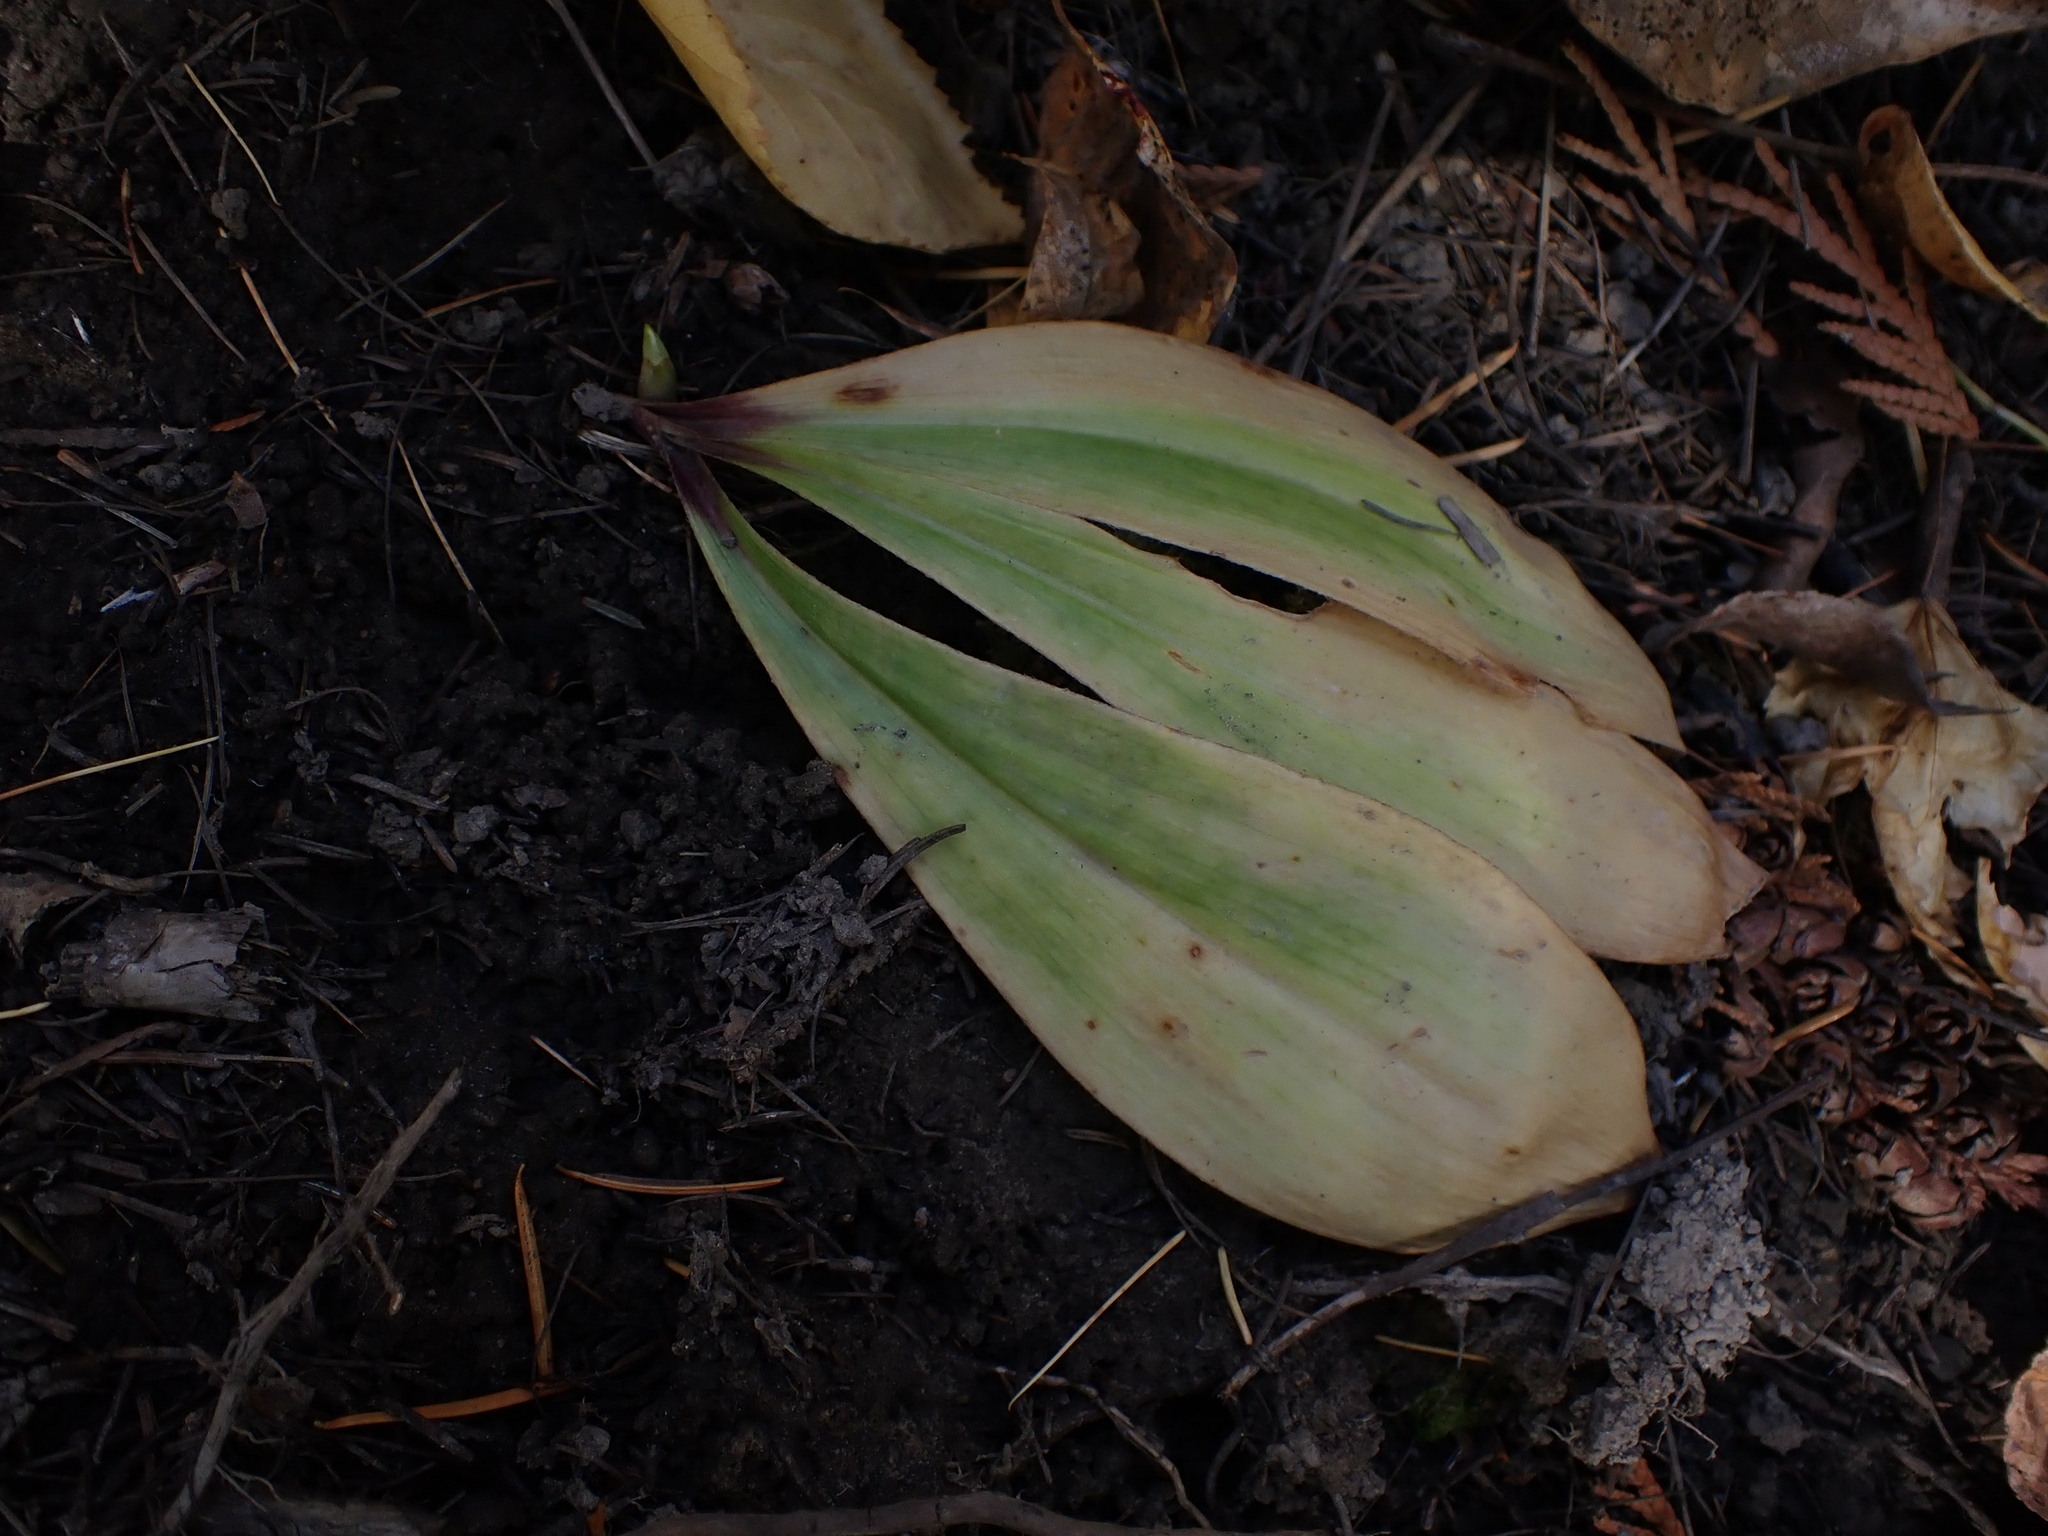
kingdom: Plantae
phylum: Tracheophyta
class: Liliopsida
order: Liliales
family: Liliaceae
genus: Clintonia
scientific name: Clintonia uniflora
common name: Queen's cup
